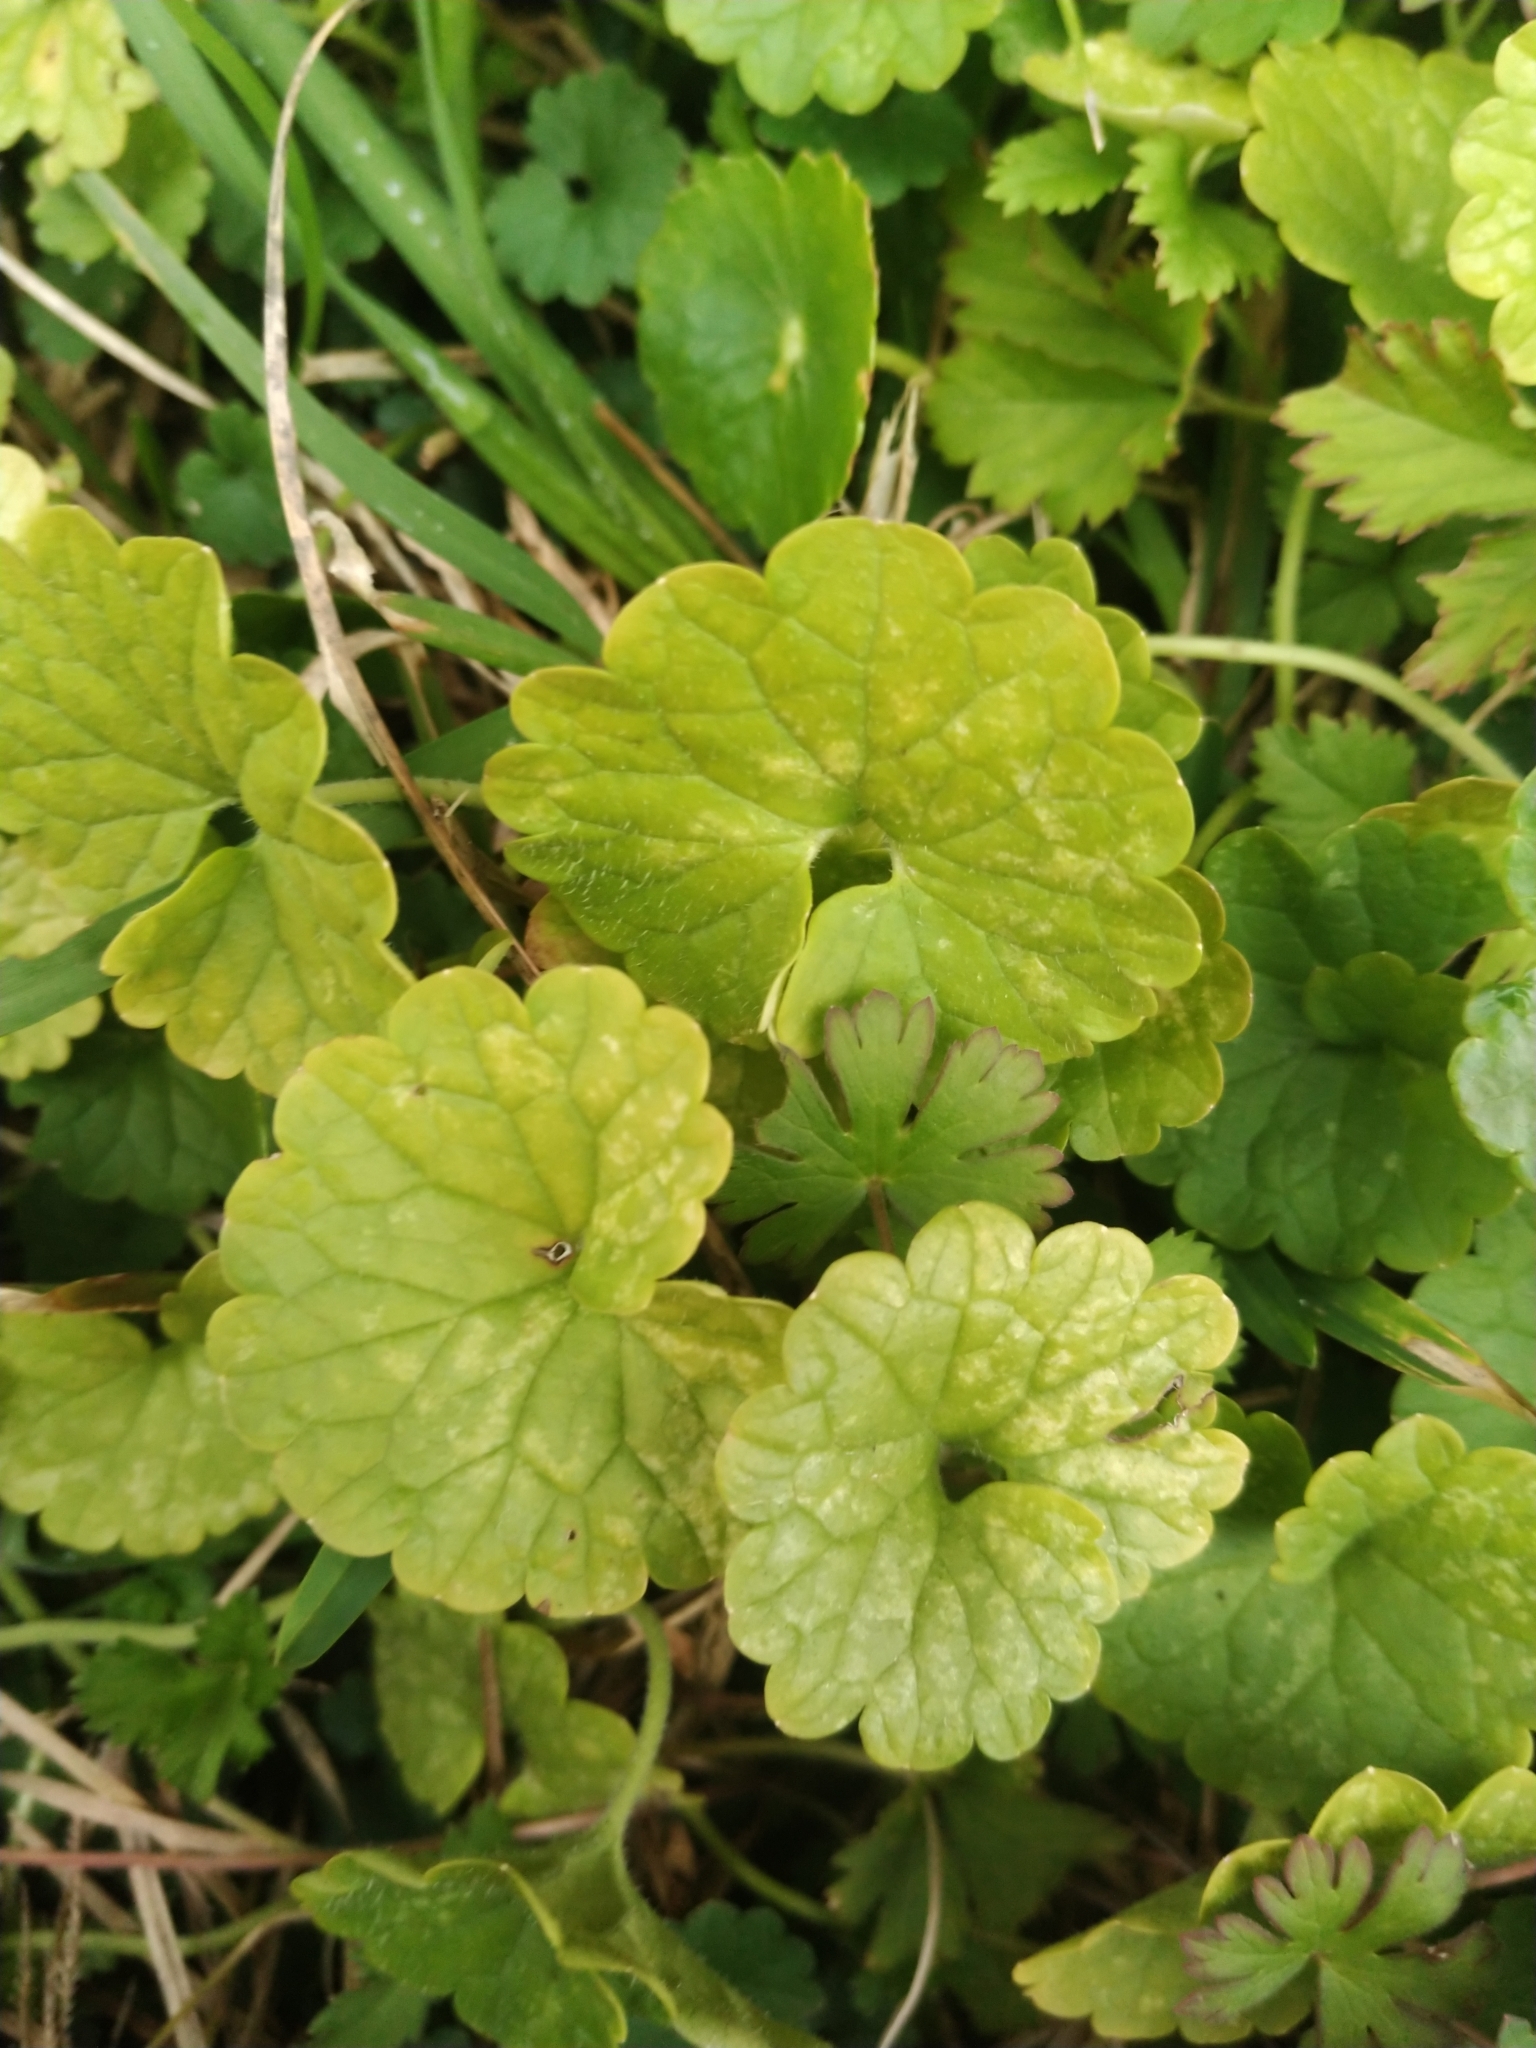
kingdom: Plantae
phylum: Tracheophyta
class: Magnoliopsida
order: Lamiales
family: Lamiaceae
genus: Glechoma
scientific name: Glechoma hederacea
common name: Ground ivy
